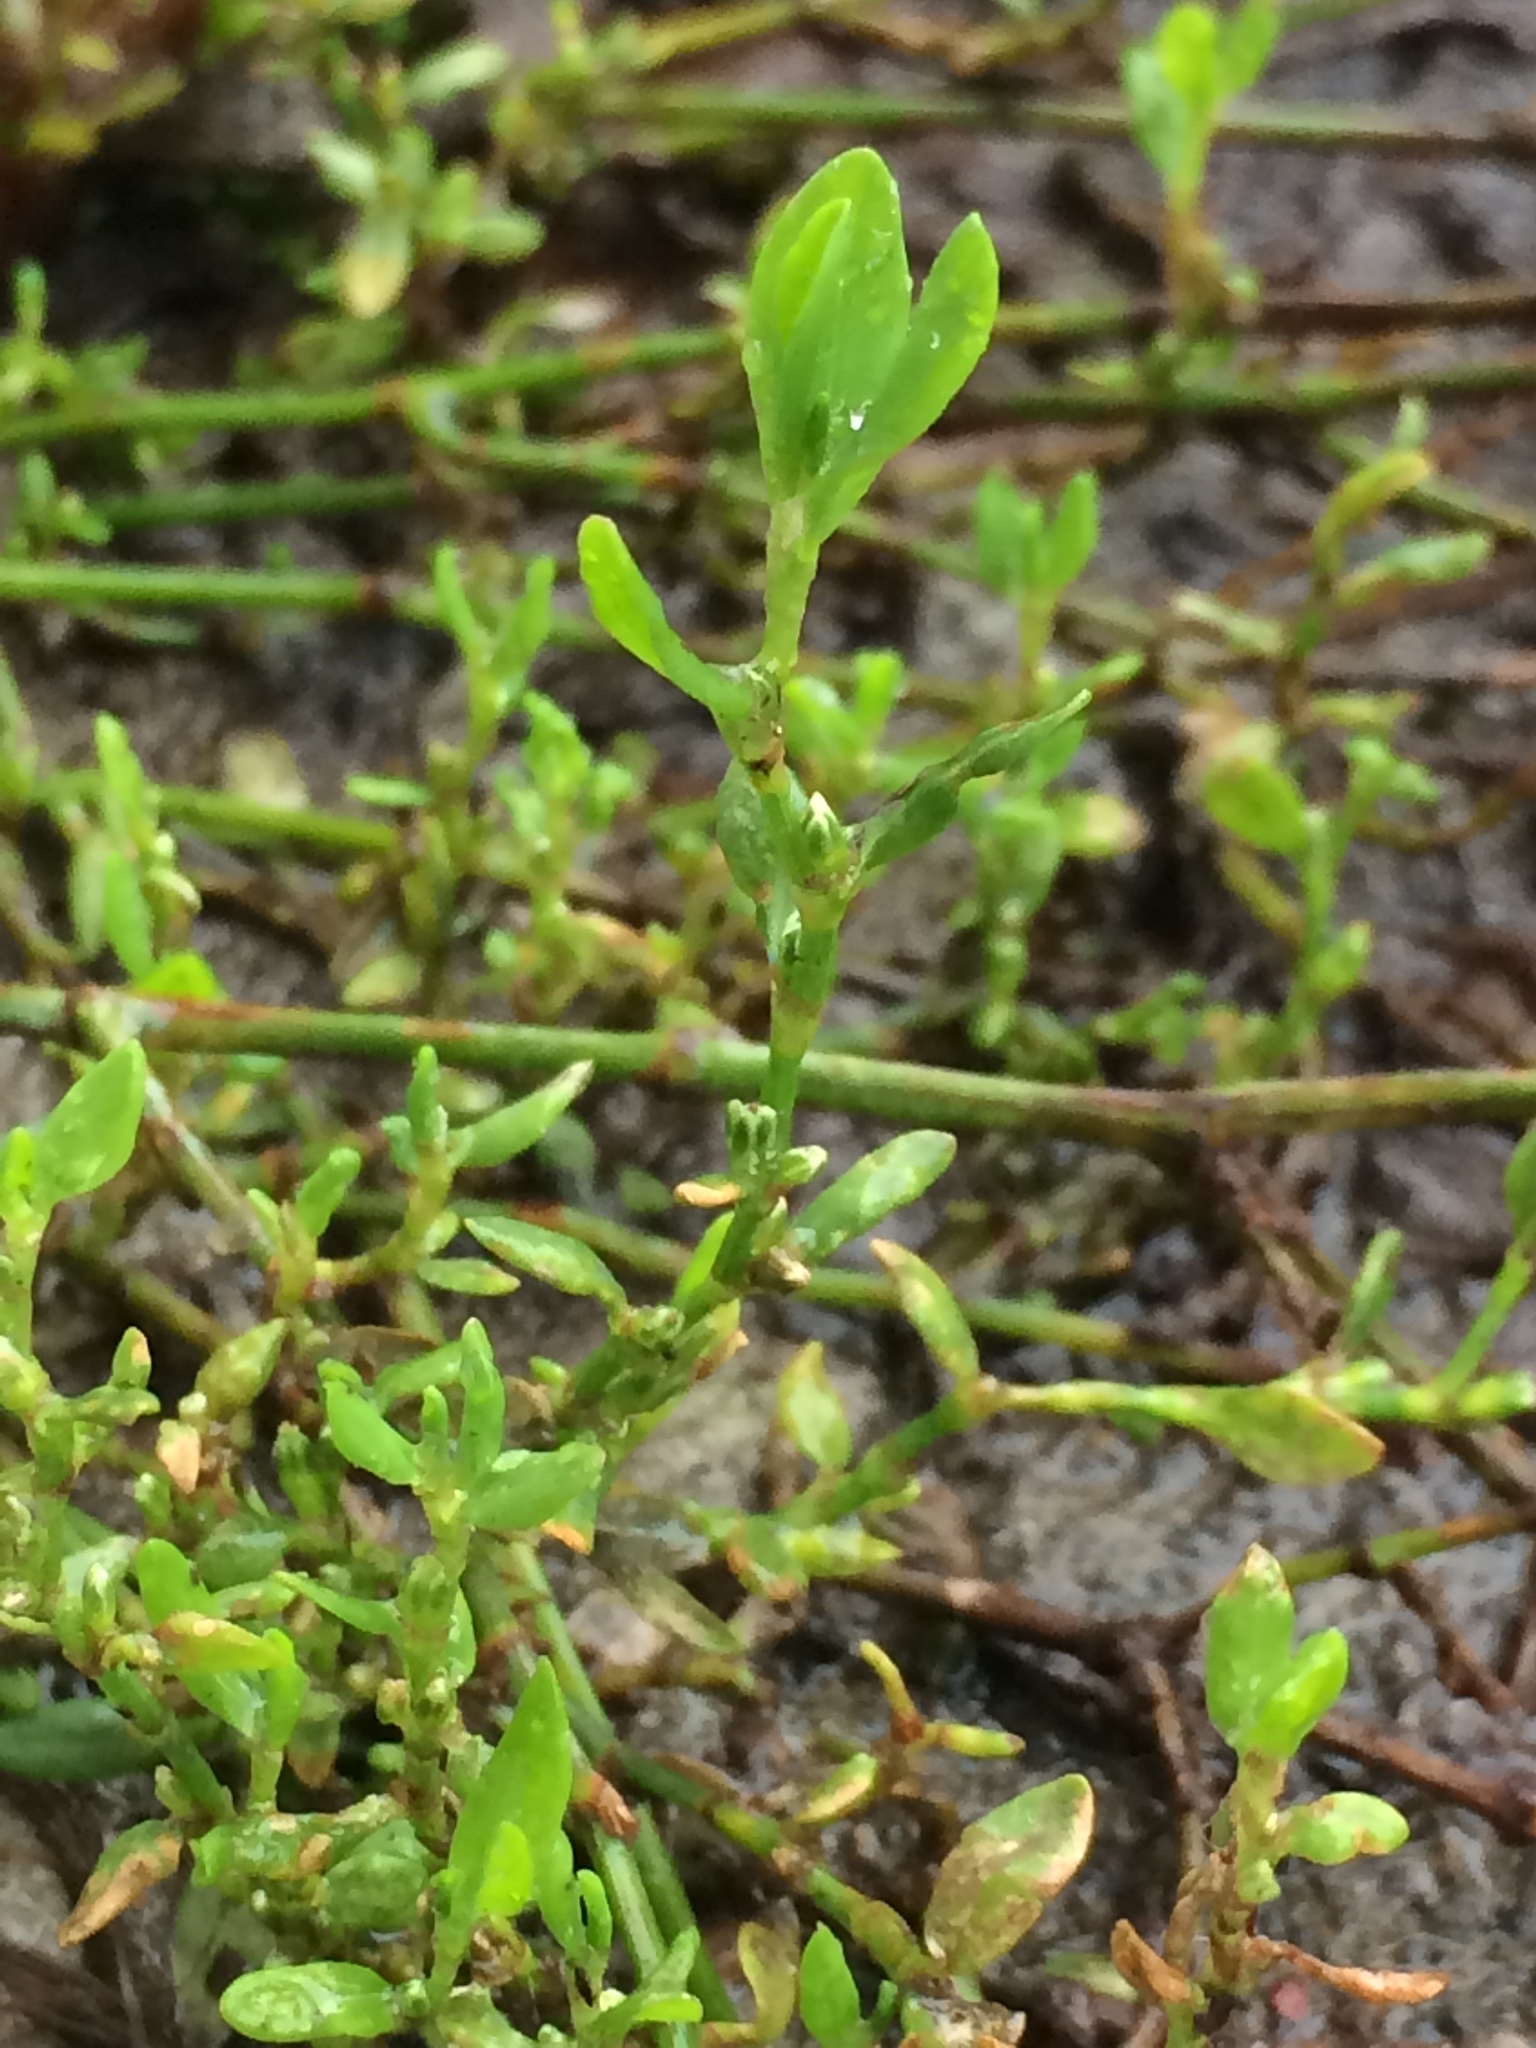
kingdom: Plantae
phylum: Tracheophyta
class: Magnoliopsida
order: Caryophyllales
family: Polygonaceae
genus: Polygonum
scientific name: Polygonum aviculare
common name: Prostrate knotweed
